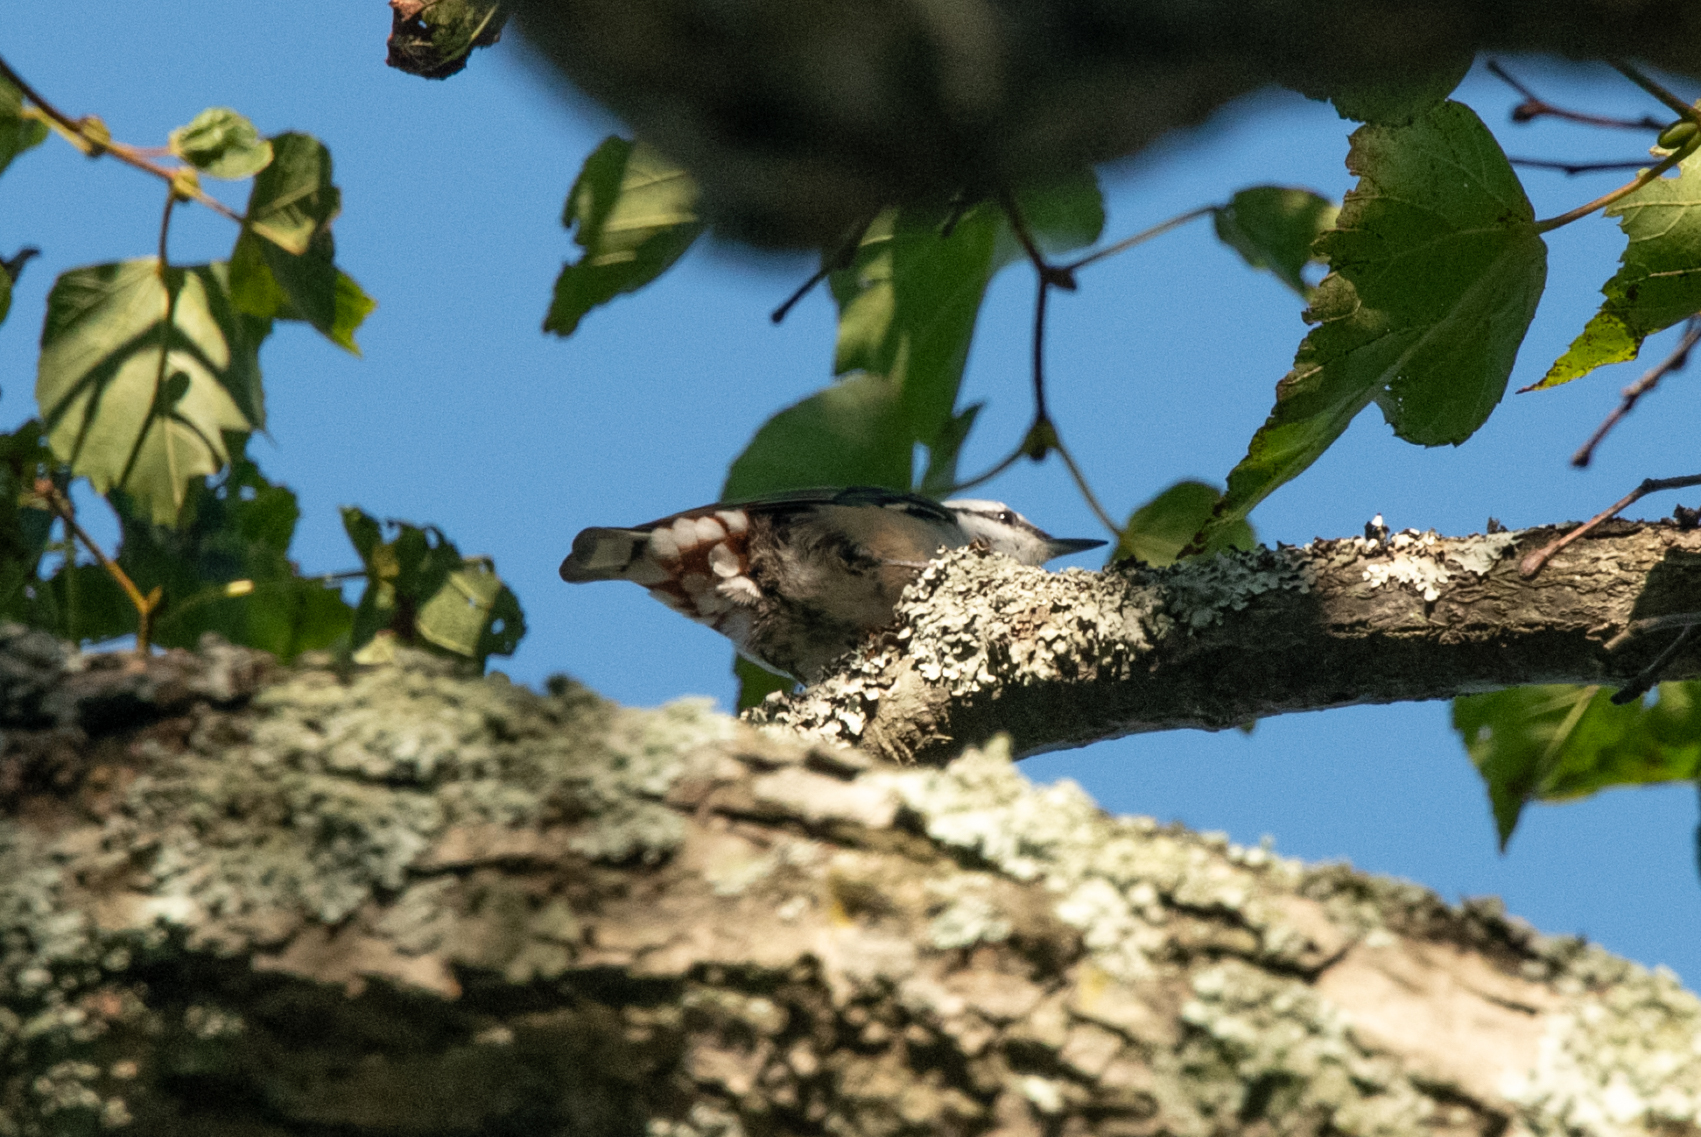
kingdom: Animalia
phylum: Chordata
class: Aves
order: Passeriformes
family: Sittidae
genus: Sitta
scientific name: Sitta europaea
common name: Eurasian nuthatch
